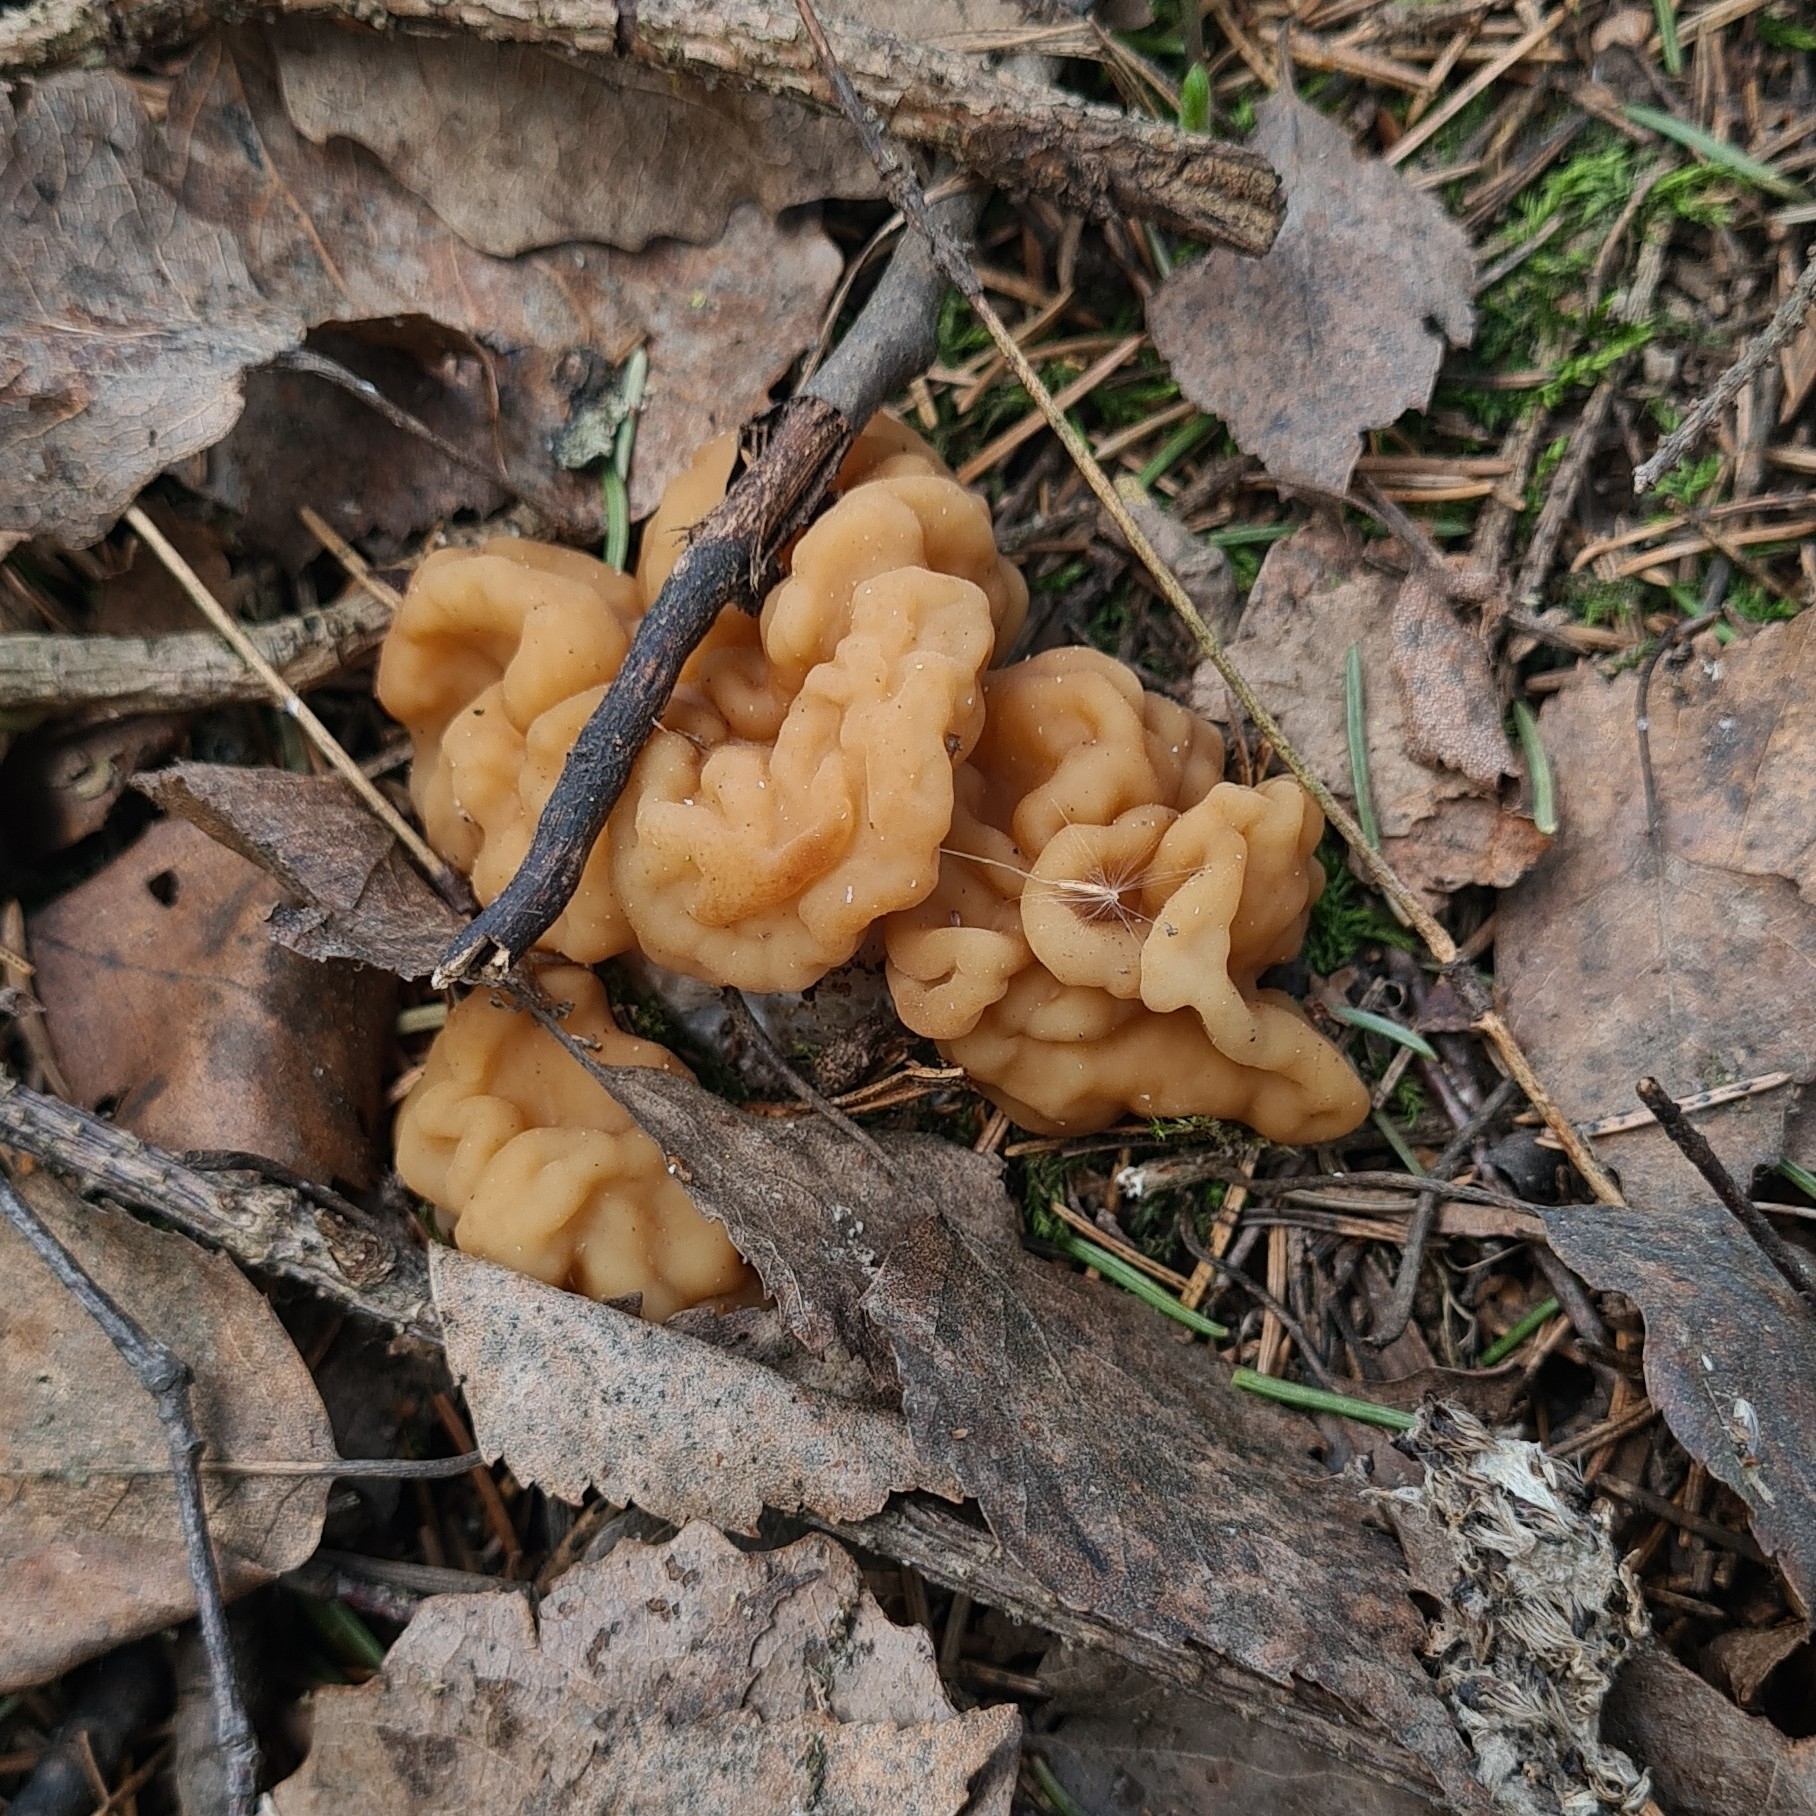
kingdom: Fungi
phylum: Ascomycota
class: Pezizomycetes
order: Pezizales
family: Discinaceae
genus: Gyromitra
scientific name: Gyromitra gigas
